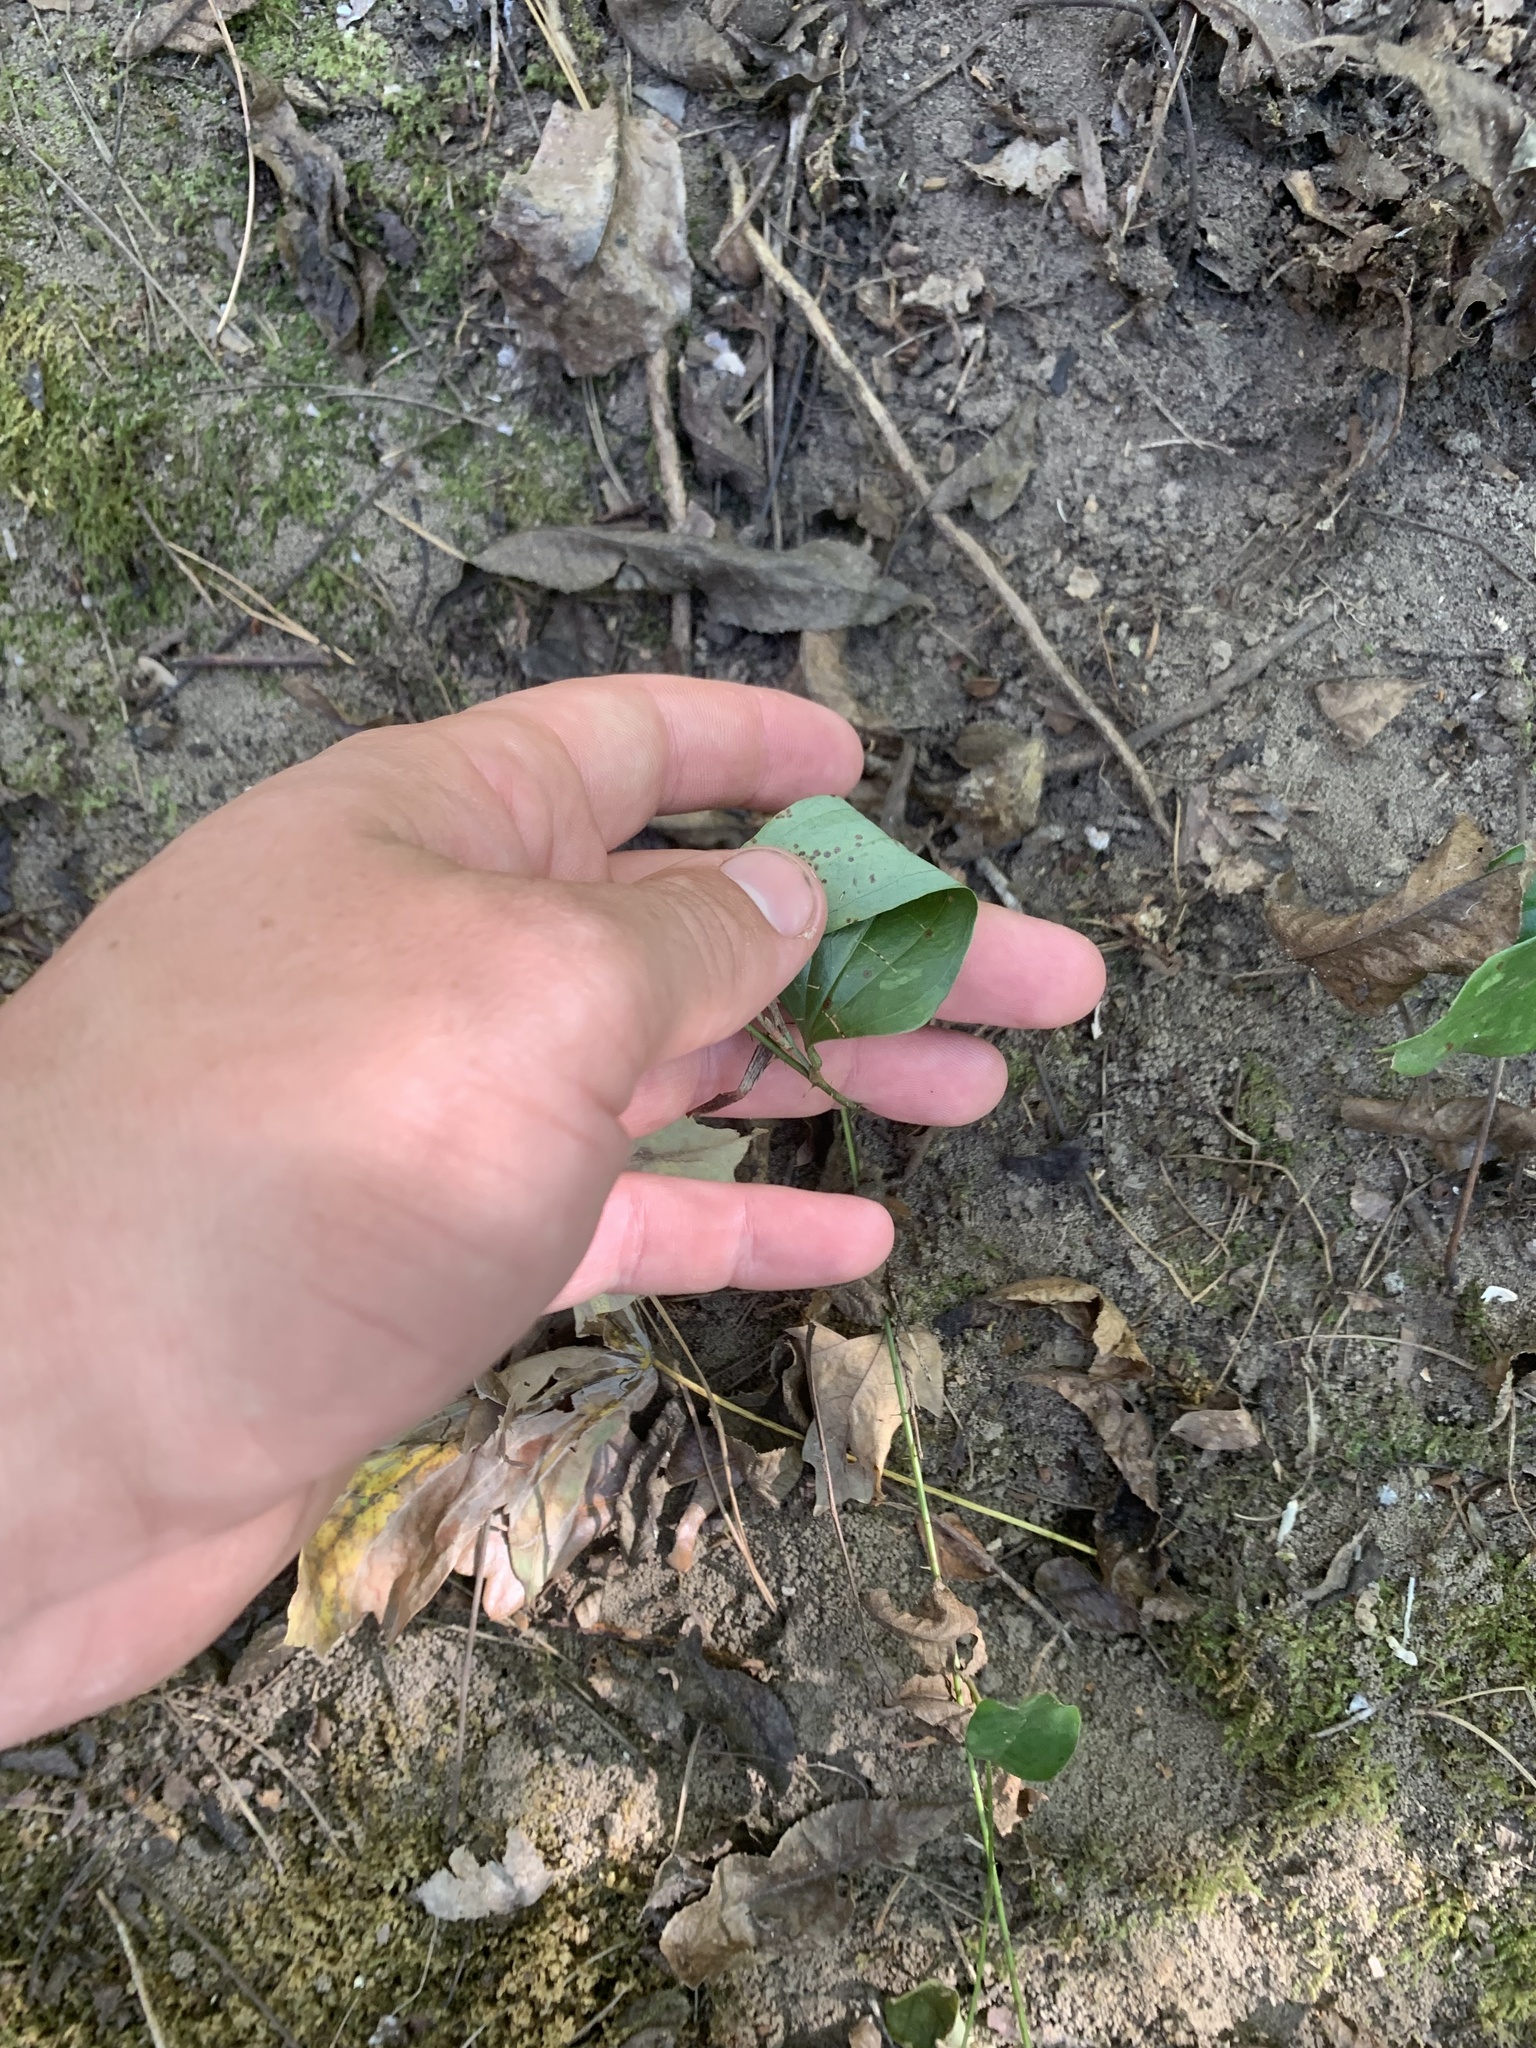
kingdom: Plantae
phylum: Tracheophyta
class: Liliopsida
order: Liliales
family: Smilacaceae
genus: Smilax
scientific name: Smilax glauca
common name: Cat greenbrier
